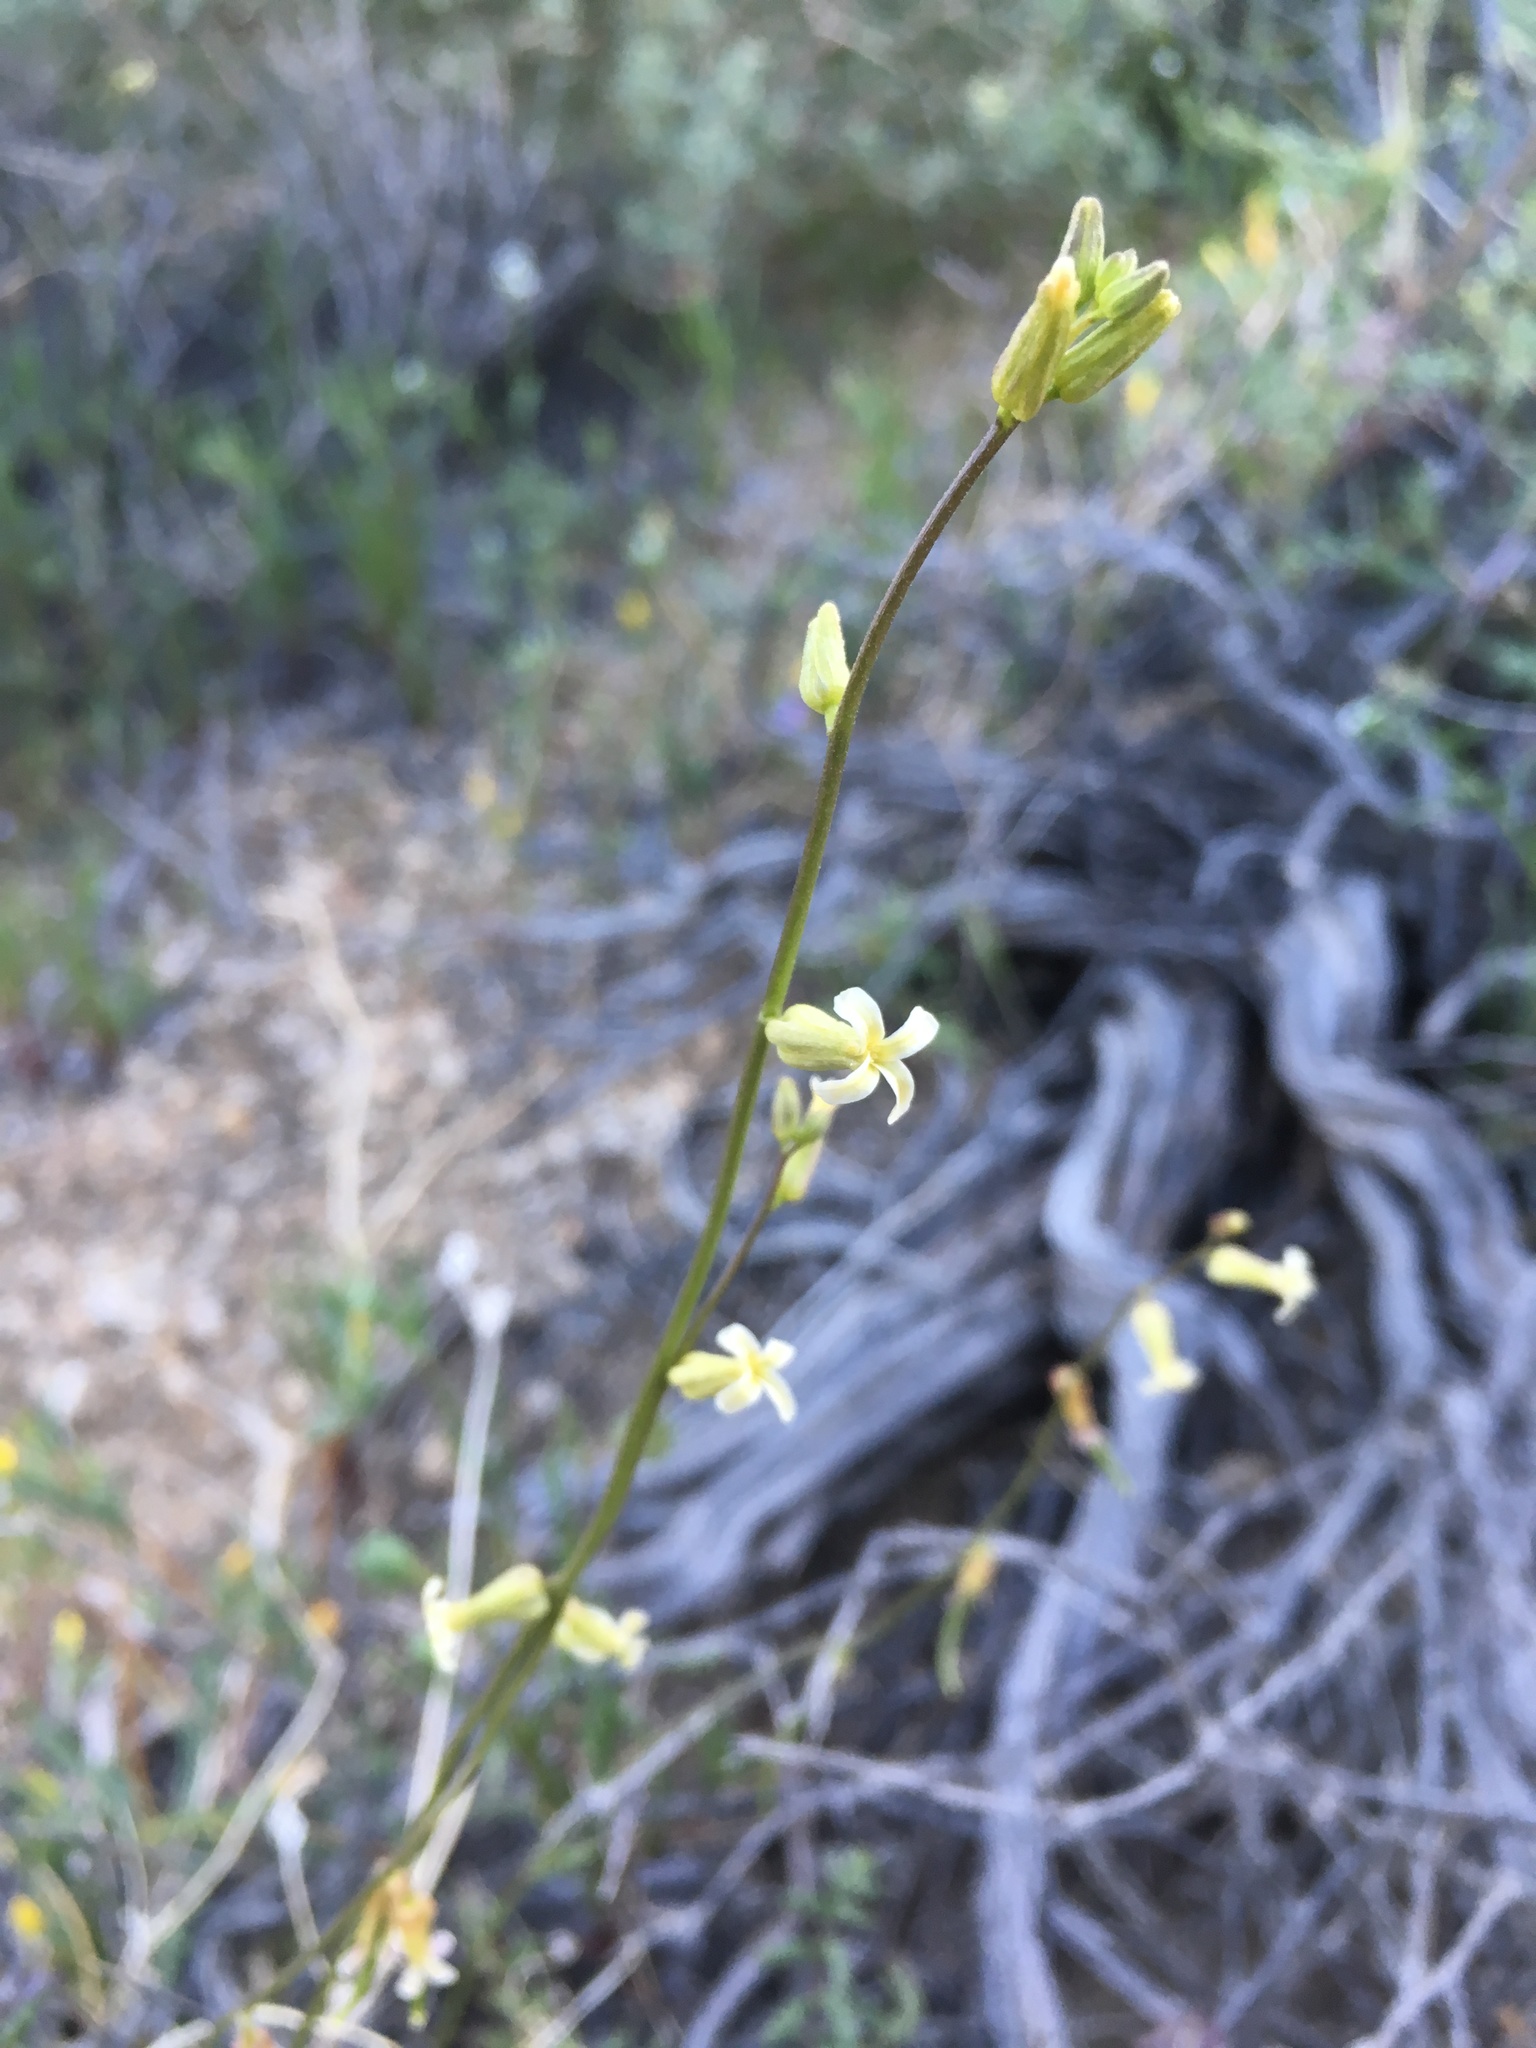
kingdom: Plantae
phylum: Tracheophyta
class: Magnoliopsida
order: Brassicales
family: Brassicaceae
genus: Streptanthus
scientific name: Streptanthus cooperi
